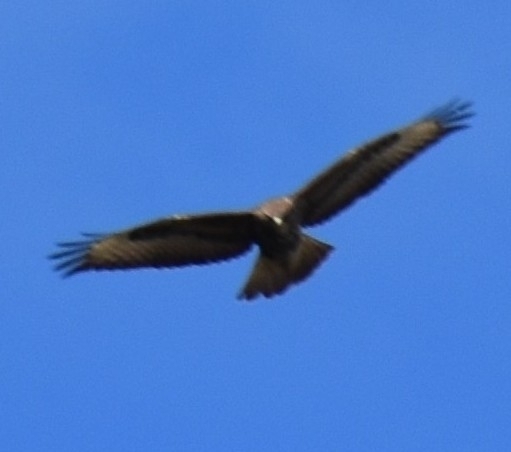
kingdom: Animalia
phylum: Chordata
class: Aves
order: Accipitriformes
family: Accipitridae
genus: Buteo
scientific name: Buteo buteo
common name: Common buzzard
